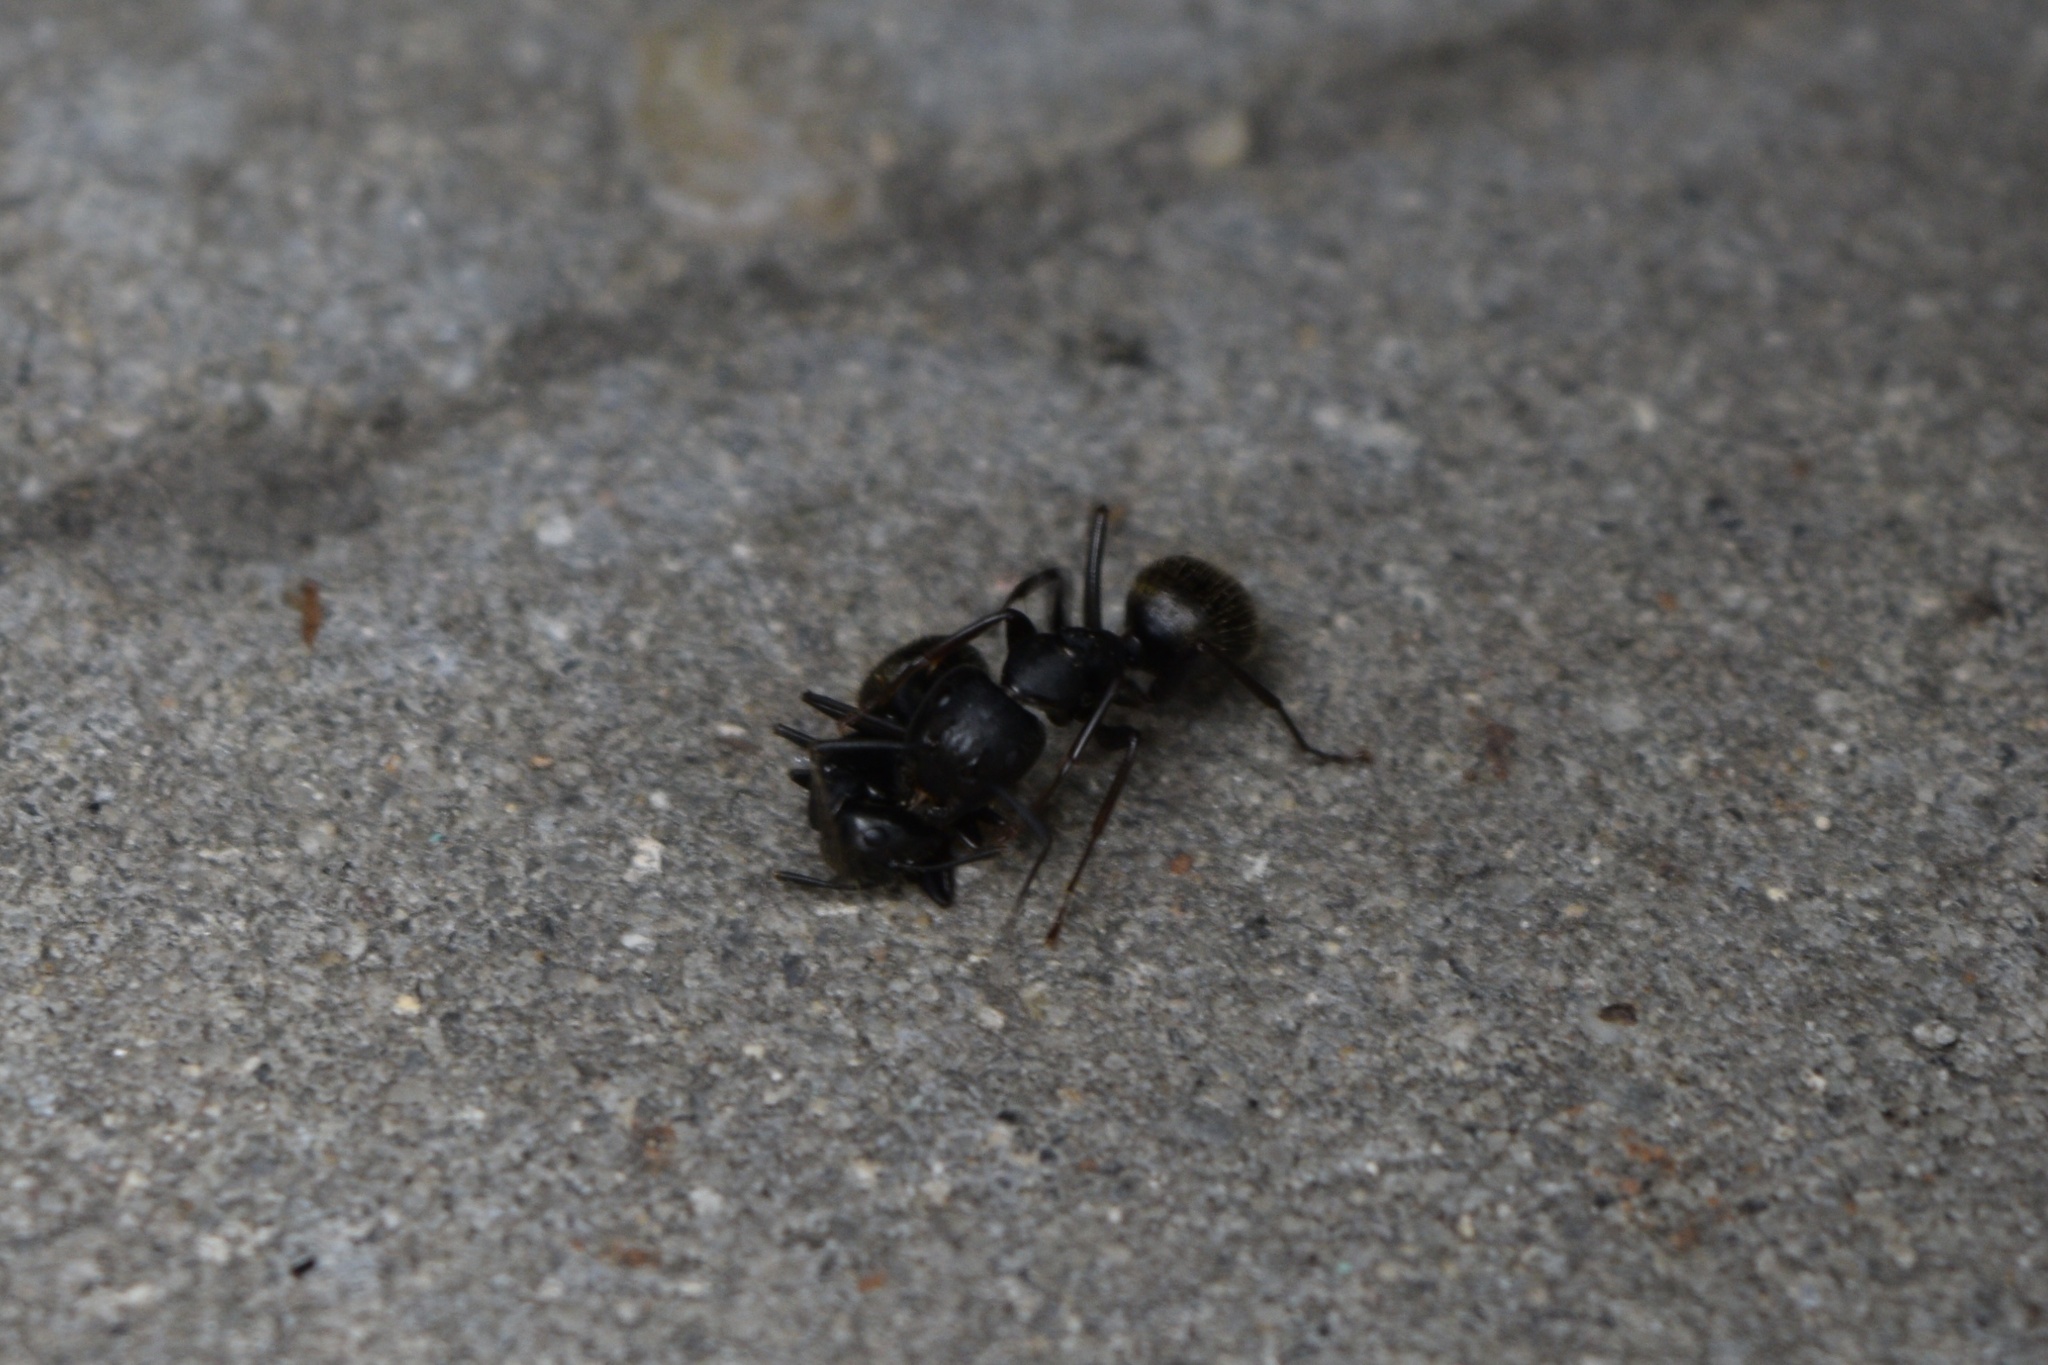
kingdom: Animalia
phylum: Arthropoda
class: Insecta
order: Hymenoptera
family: Formicidae
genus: Camponotus
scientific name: Camponotus pennsylvanicus
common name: Black carpenter ant
